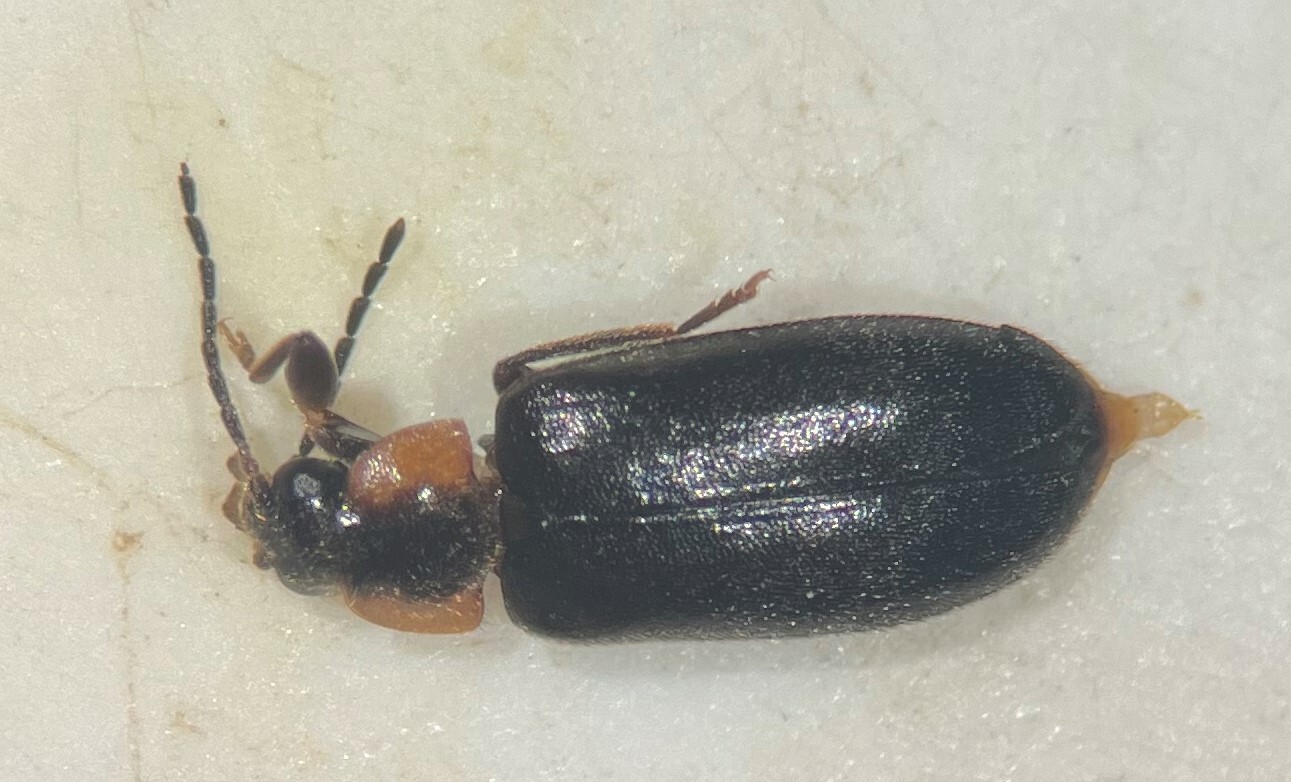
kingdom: Animalia
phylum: Arthropoda
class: Insecta
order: Coleoptera
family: Scirtidae
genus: Elodes
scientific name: Elodes maculicollis
